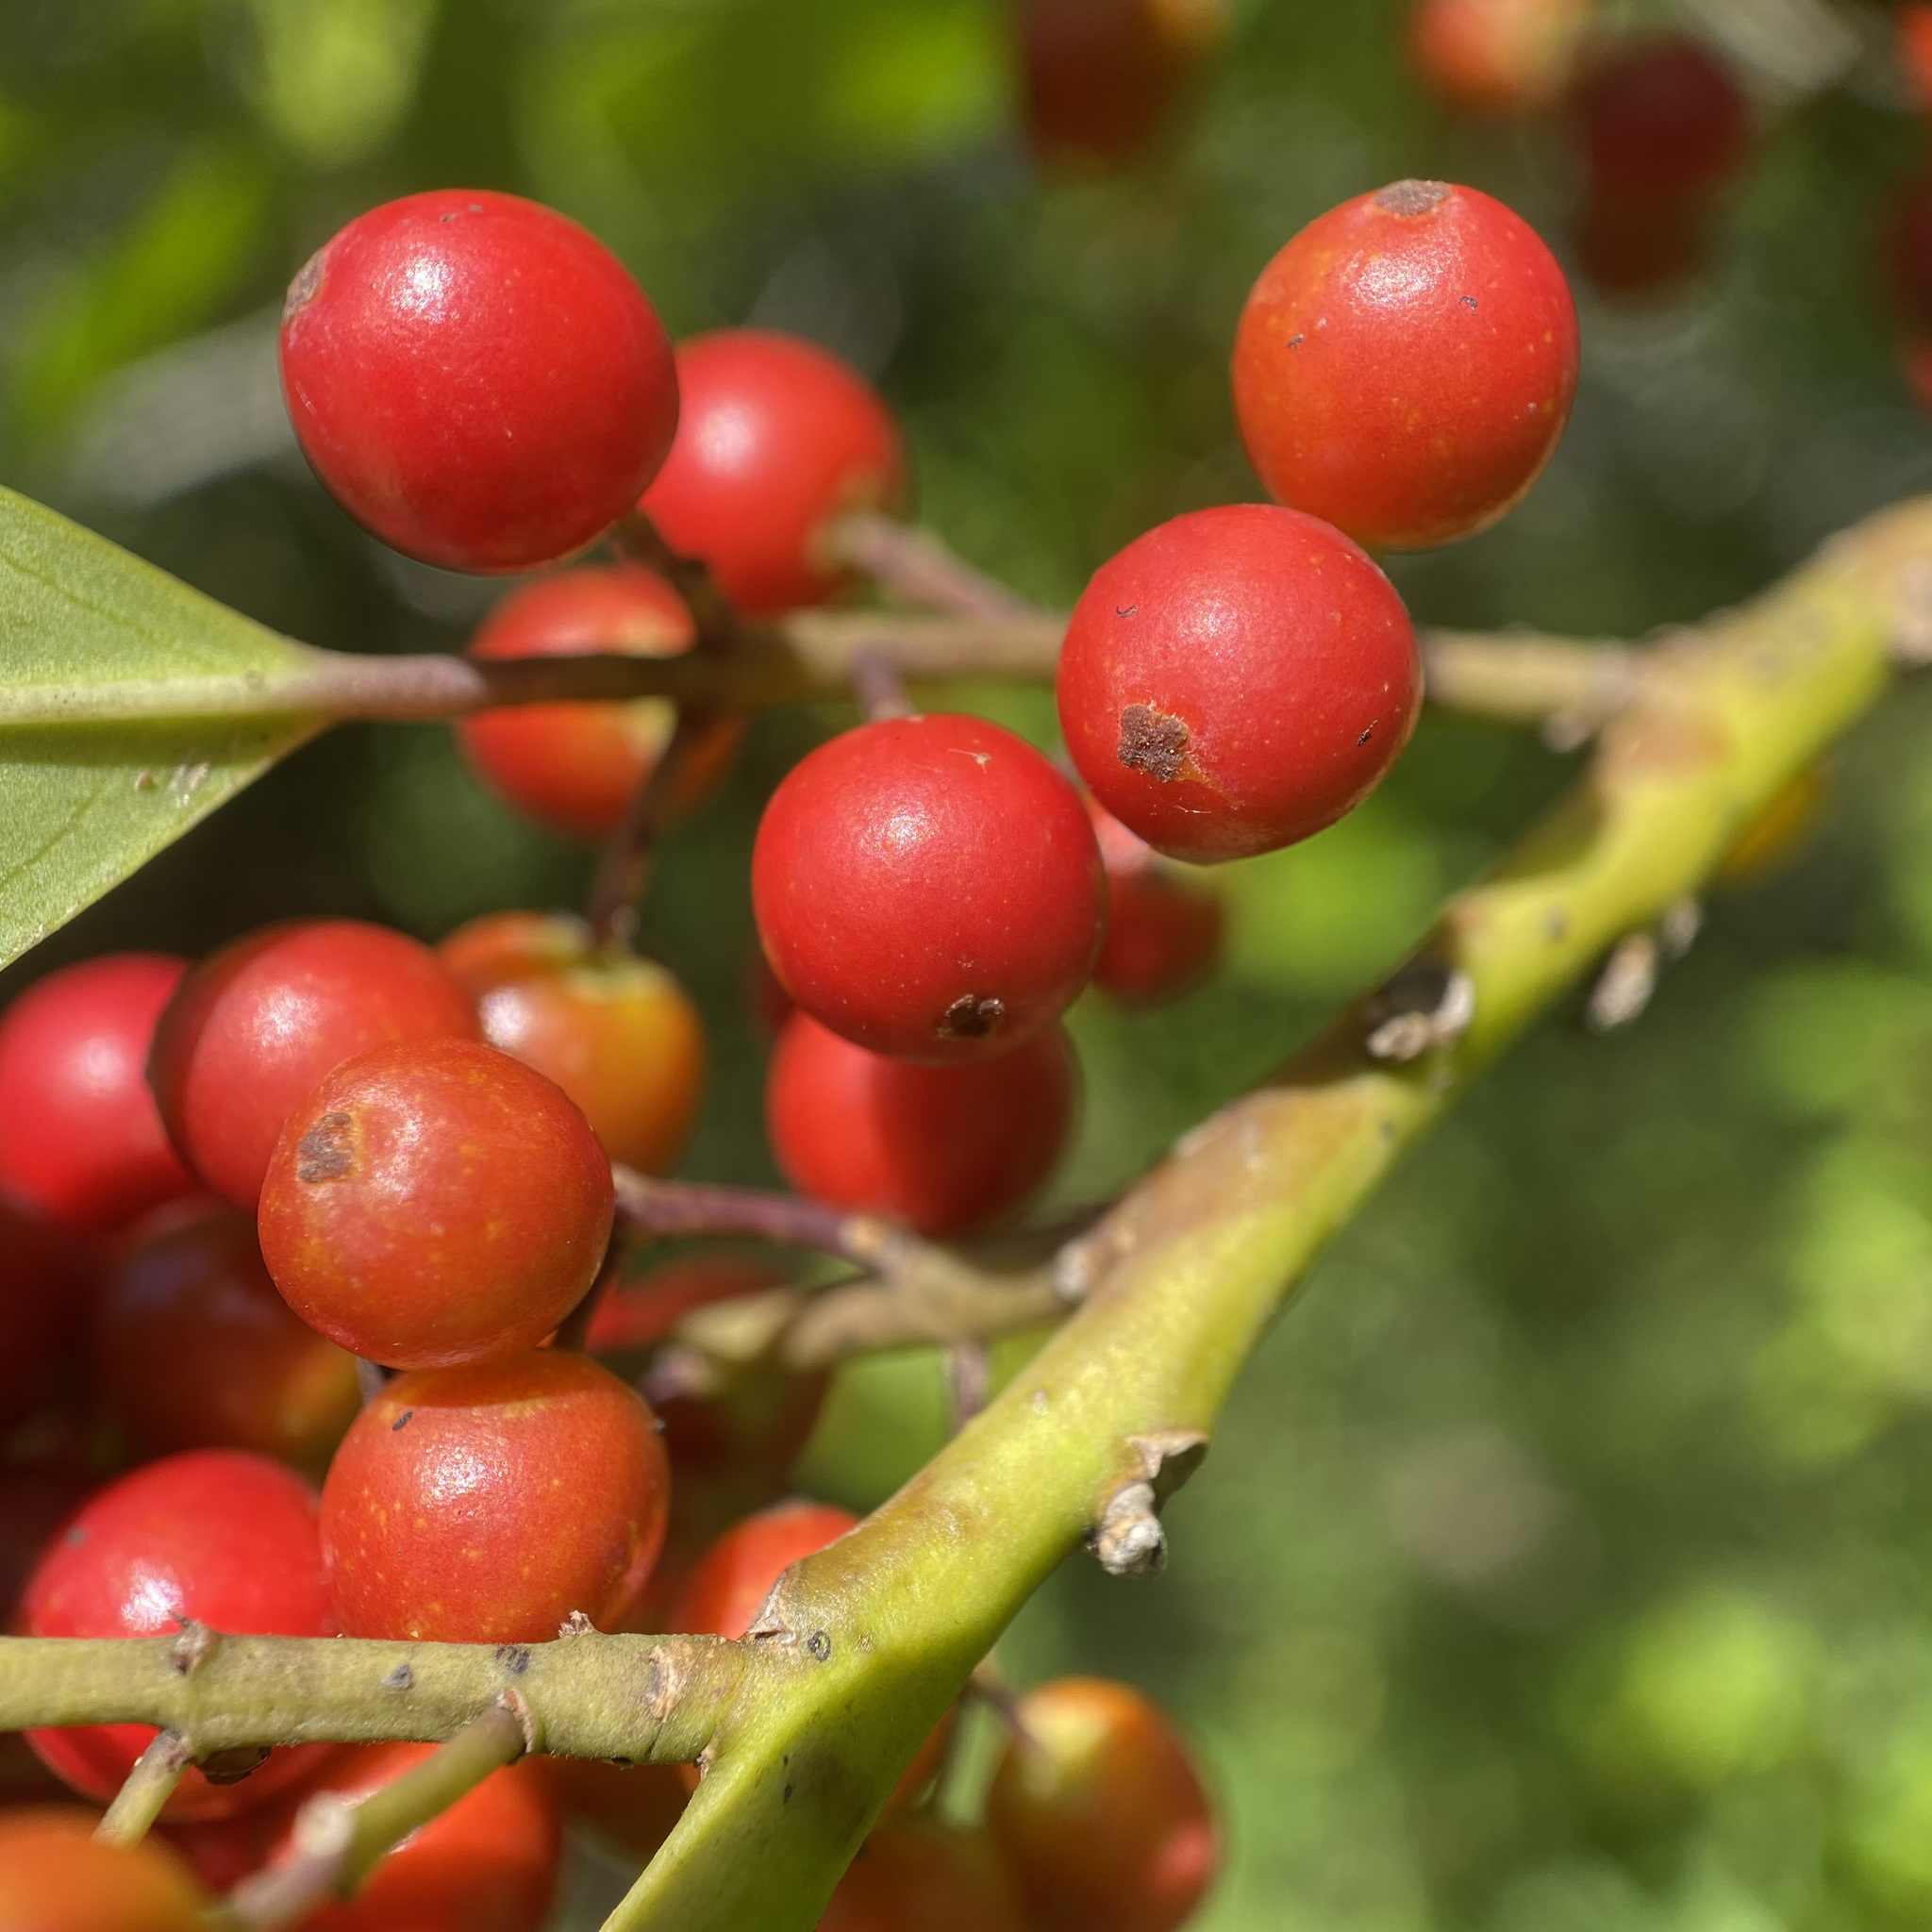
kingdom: Plantae
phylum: Tracheophyta
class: Magnoliopsida
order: Aquifoliales
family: Aquifoliaceae
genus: Ilex
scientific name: Ilex cassine
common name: Dahoon
